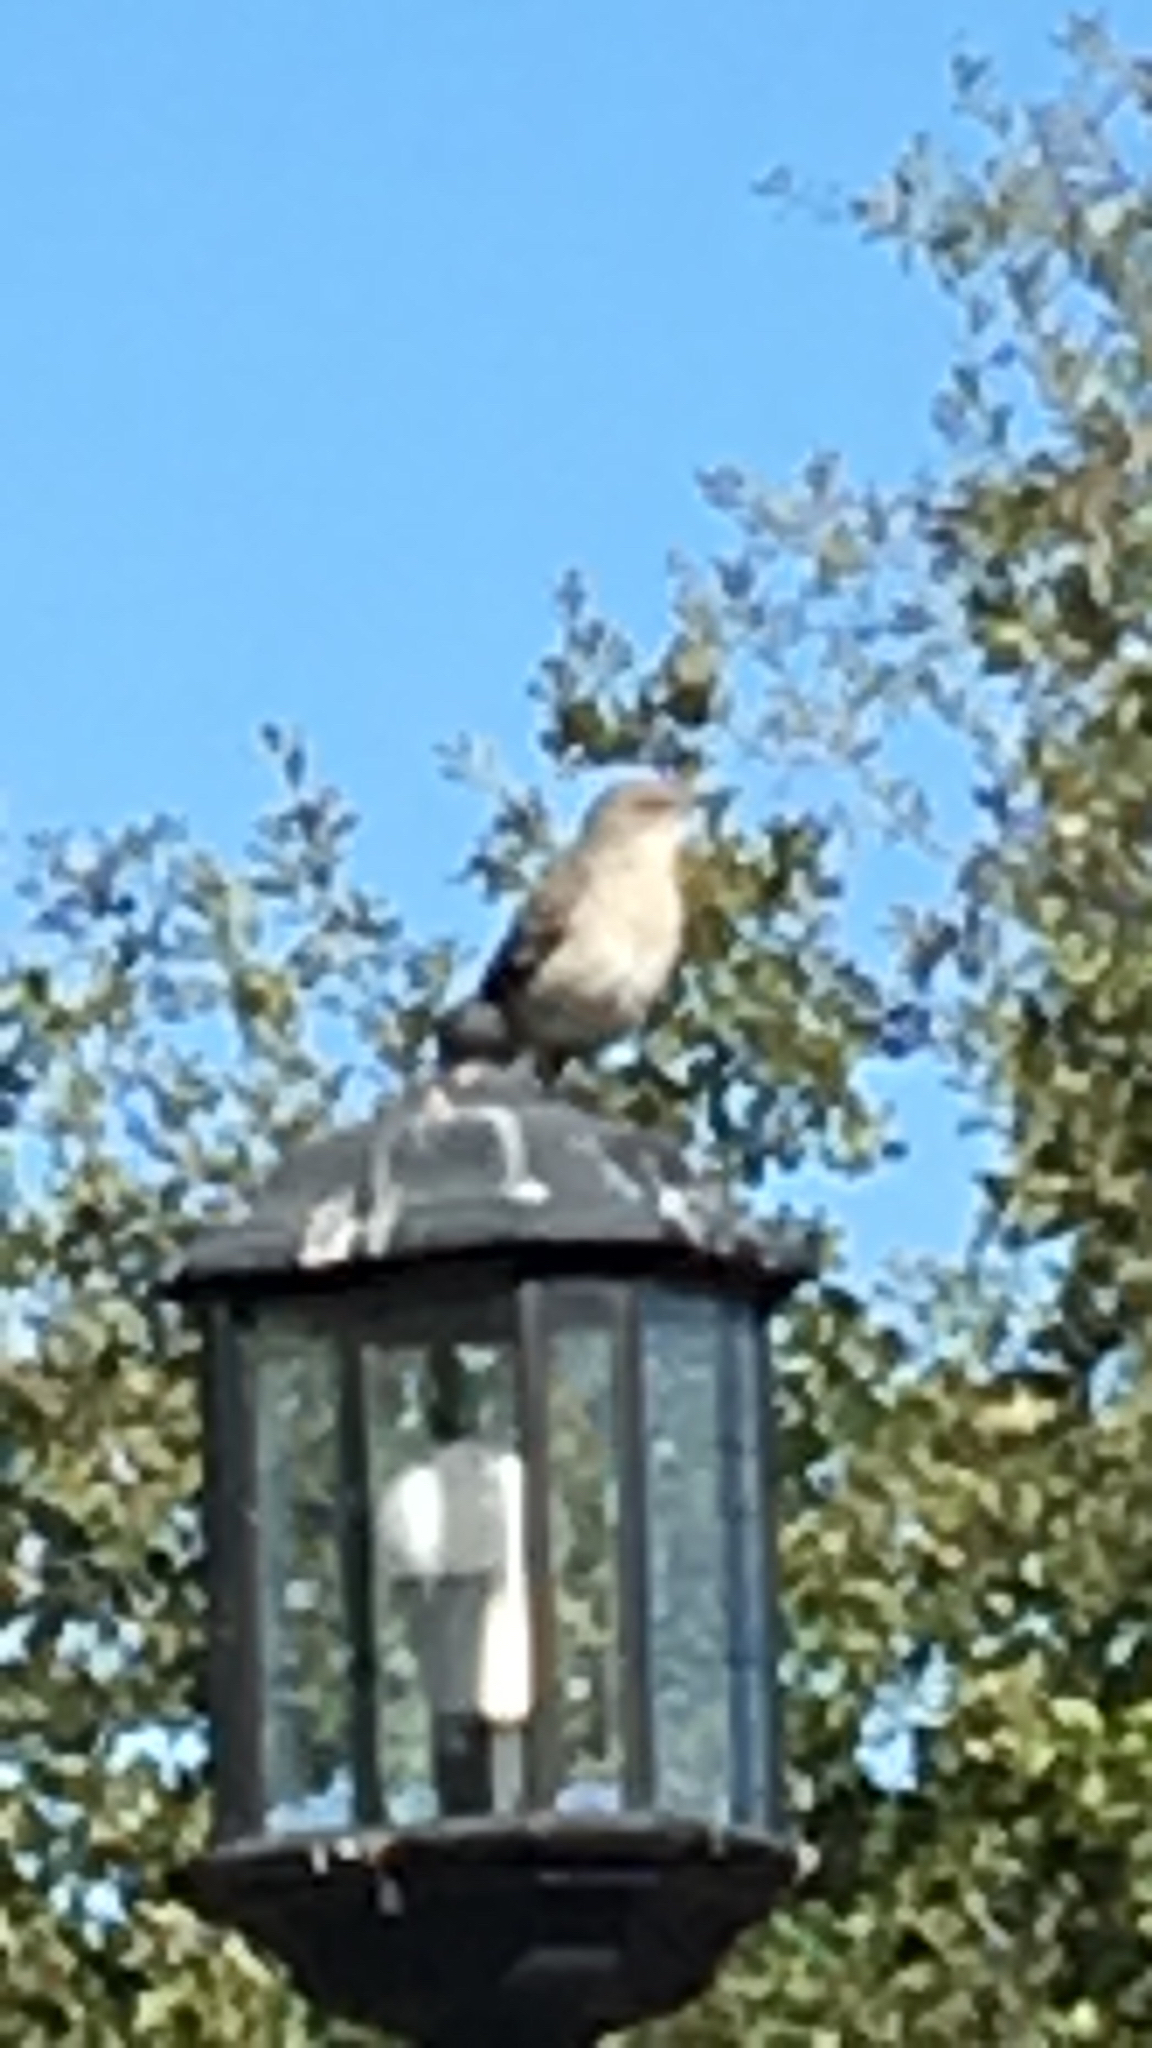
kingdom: Animalia
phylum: Chordata
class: Aves
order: Passeriformes
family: Mimidae
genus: Mimus
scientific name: Mimus polyglottos
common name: Northern mockingbird
